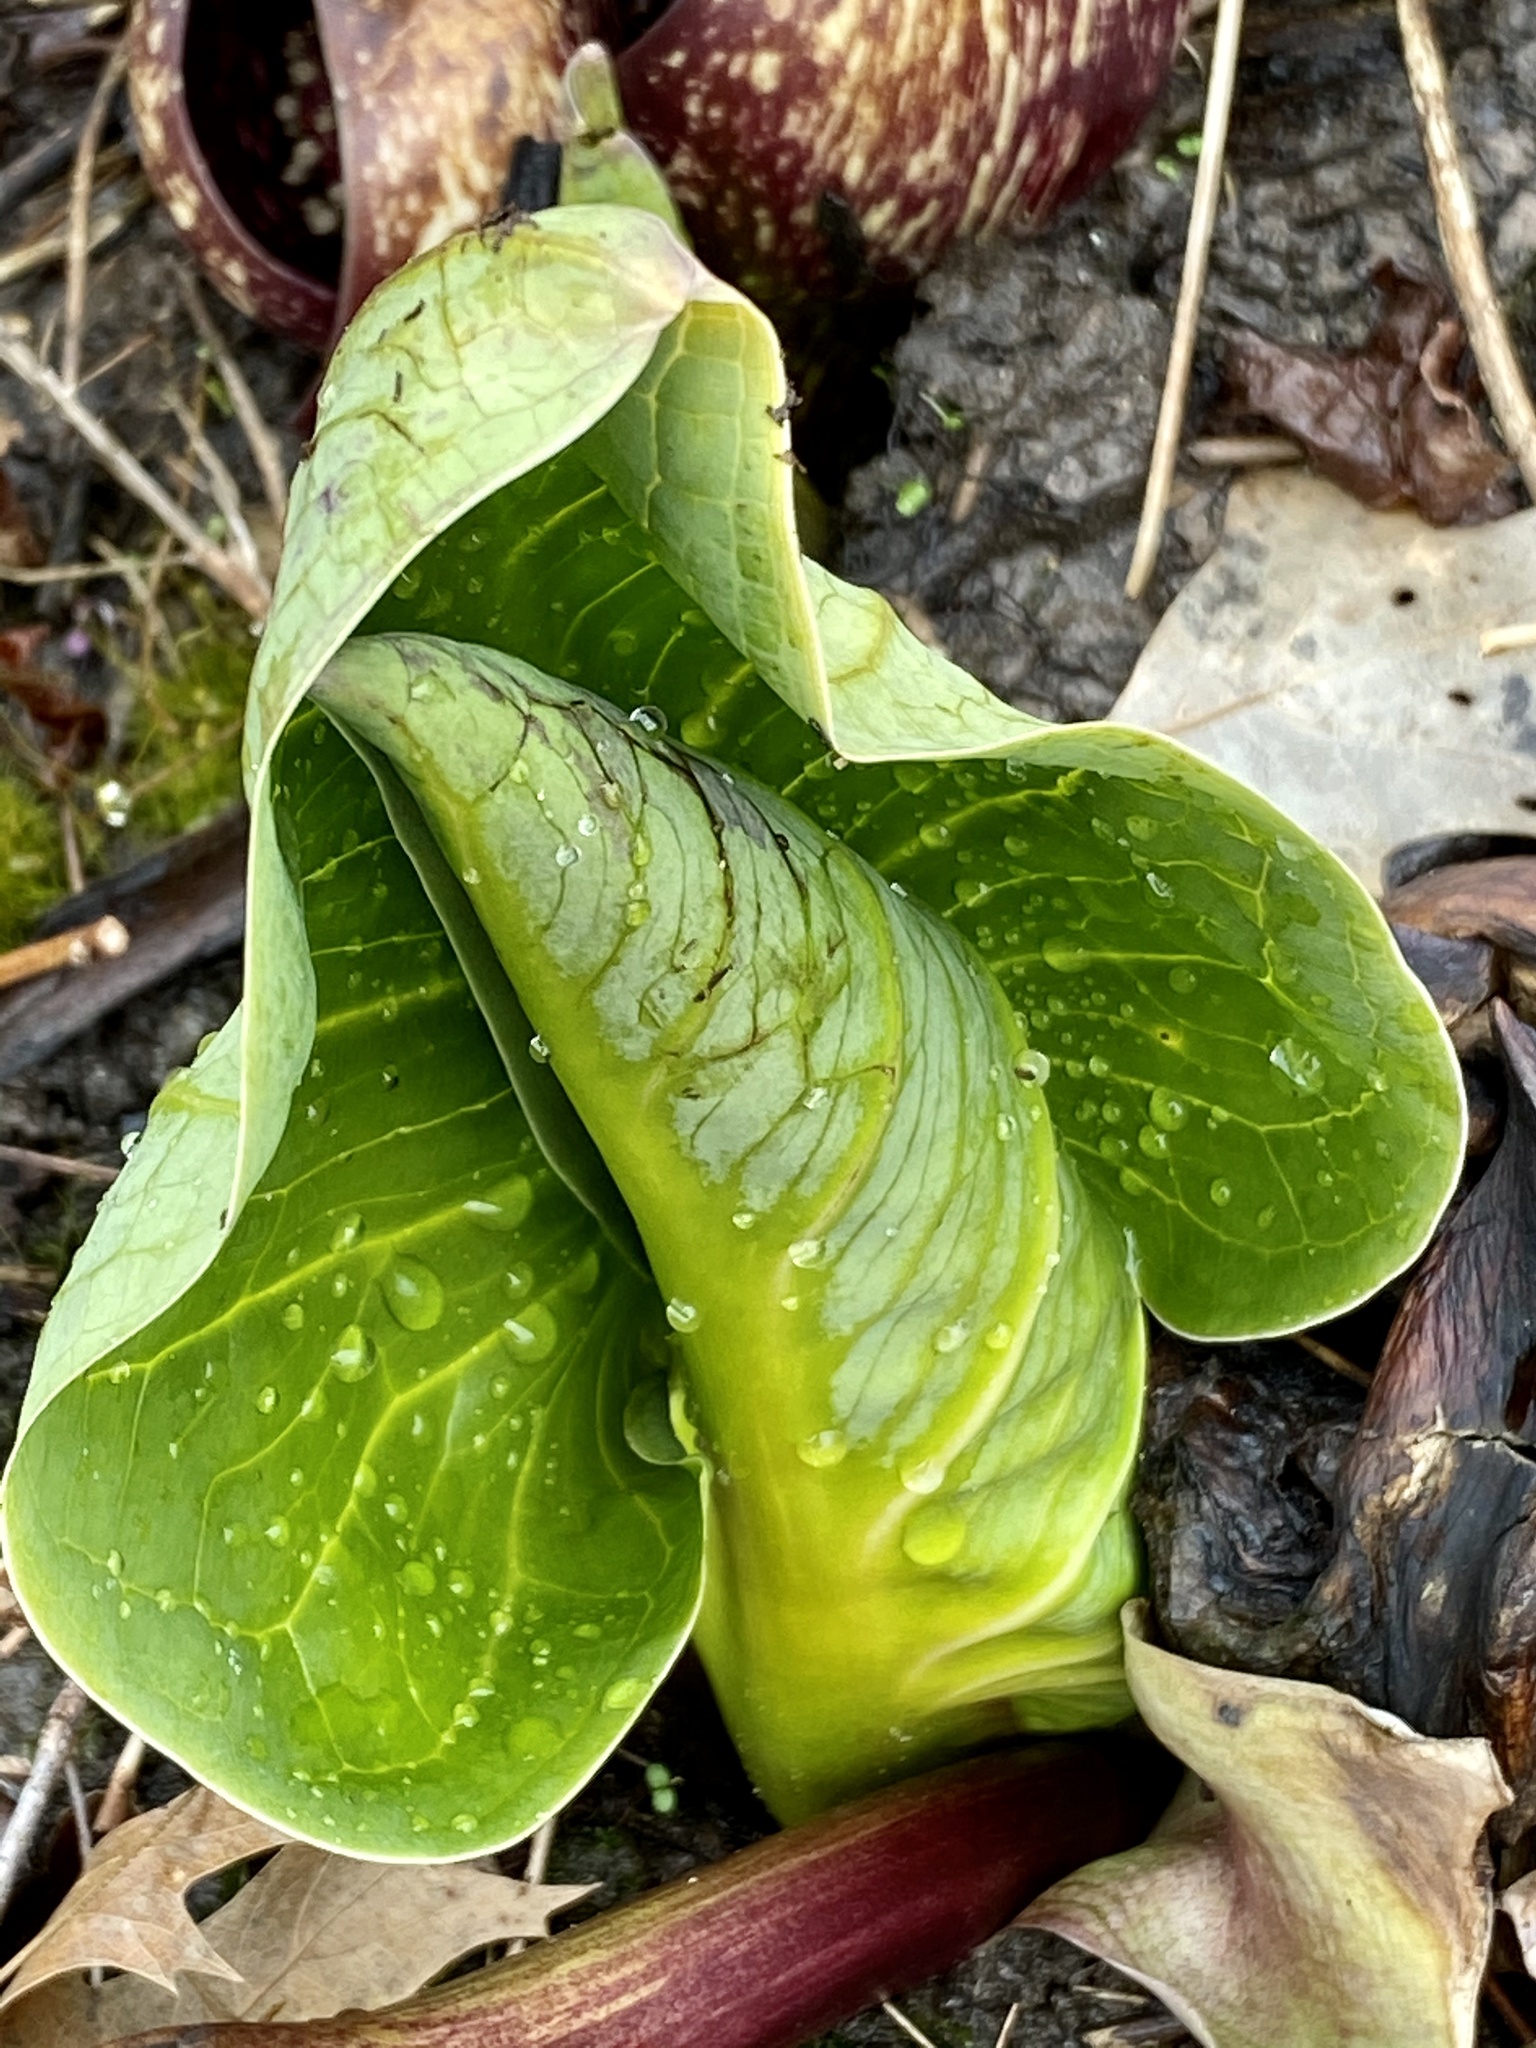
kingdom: Plantae
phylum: Tracheophyta
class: Liliopsida
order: Alismatales
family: Araceae
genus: Symplocarpus
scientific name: Symplocarpus foetidus
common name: Eastern skunk cabbage
